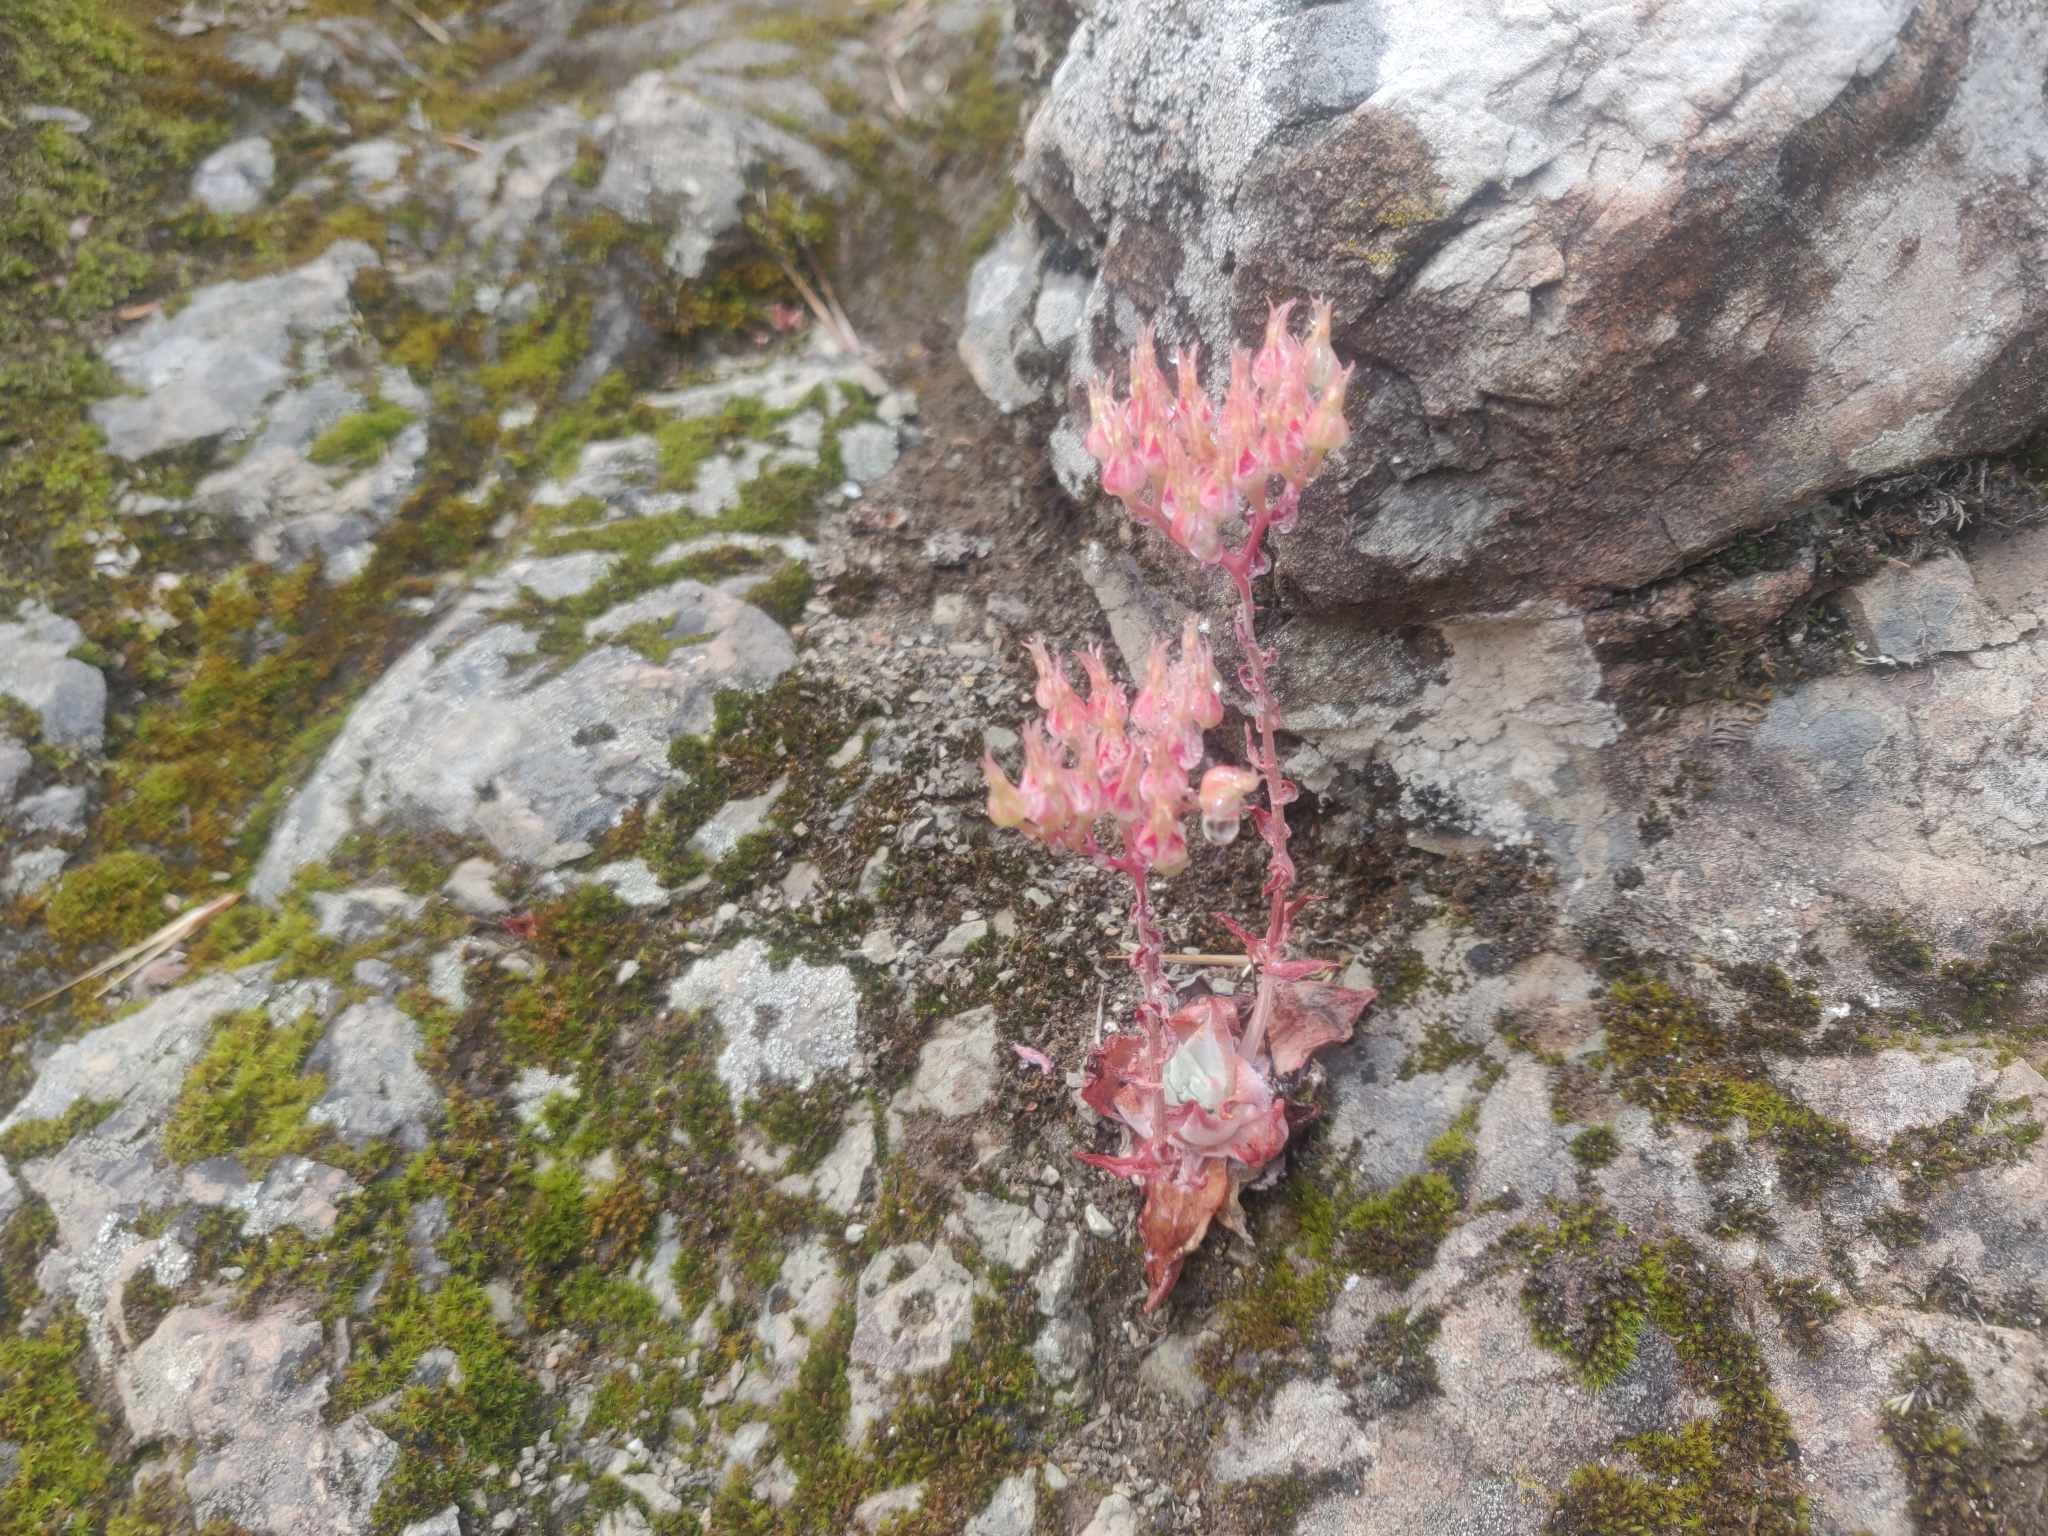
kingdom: Plantae
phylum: Tracheophyta
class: Magnoliopsida
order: Saxifragales
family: Crassulaceae
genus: Dudleya
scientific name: Dudleya cymosa
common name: Canyon dudleya
